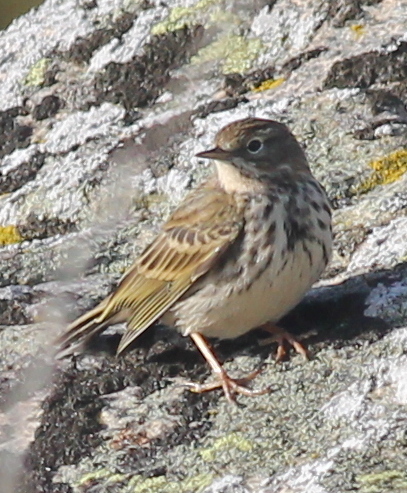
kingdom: Animalia
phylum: Chordata
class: Aves
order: Passeriformes
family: Motacillidae
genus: Anthus
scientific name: Anthus pratensis
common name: Meadow pipit
